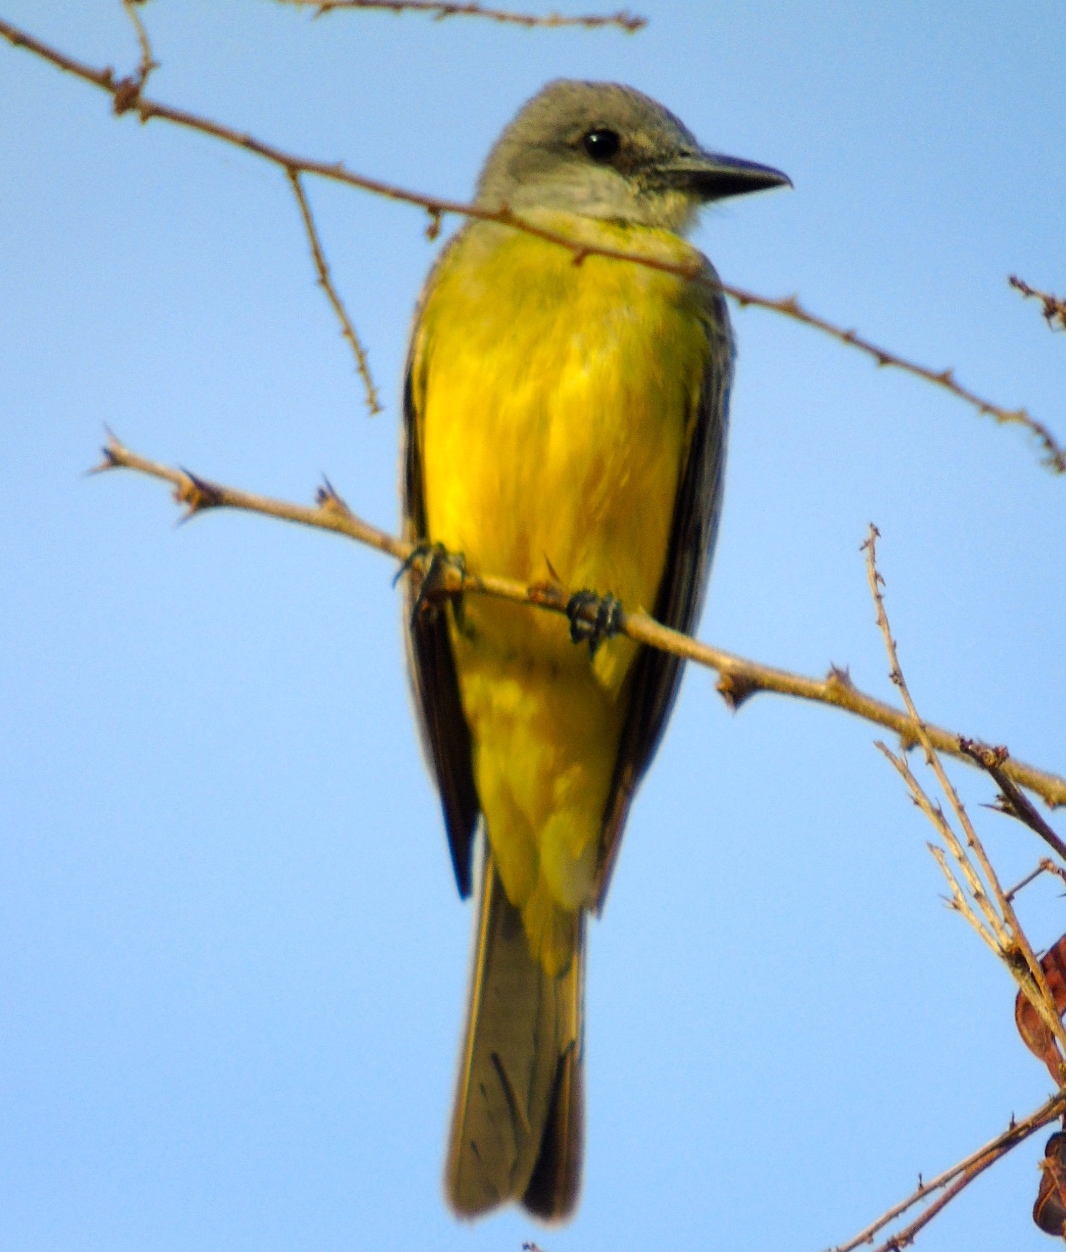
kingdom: Animalia
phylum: Chordata
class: Aves
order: Passeriformes
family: Tyrannidae
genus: Tyrannus
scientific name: Tyrannus melancholicus
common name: Tropical kingbird
